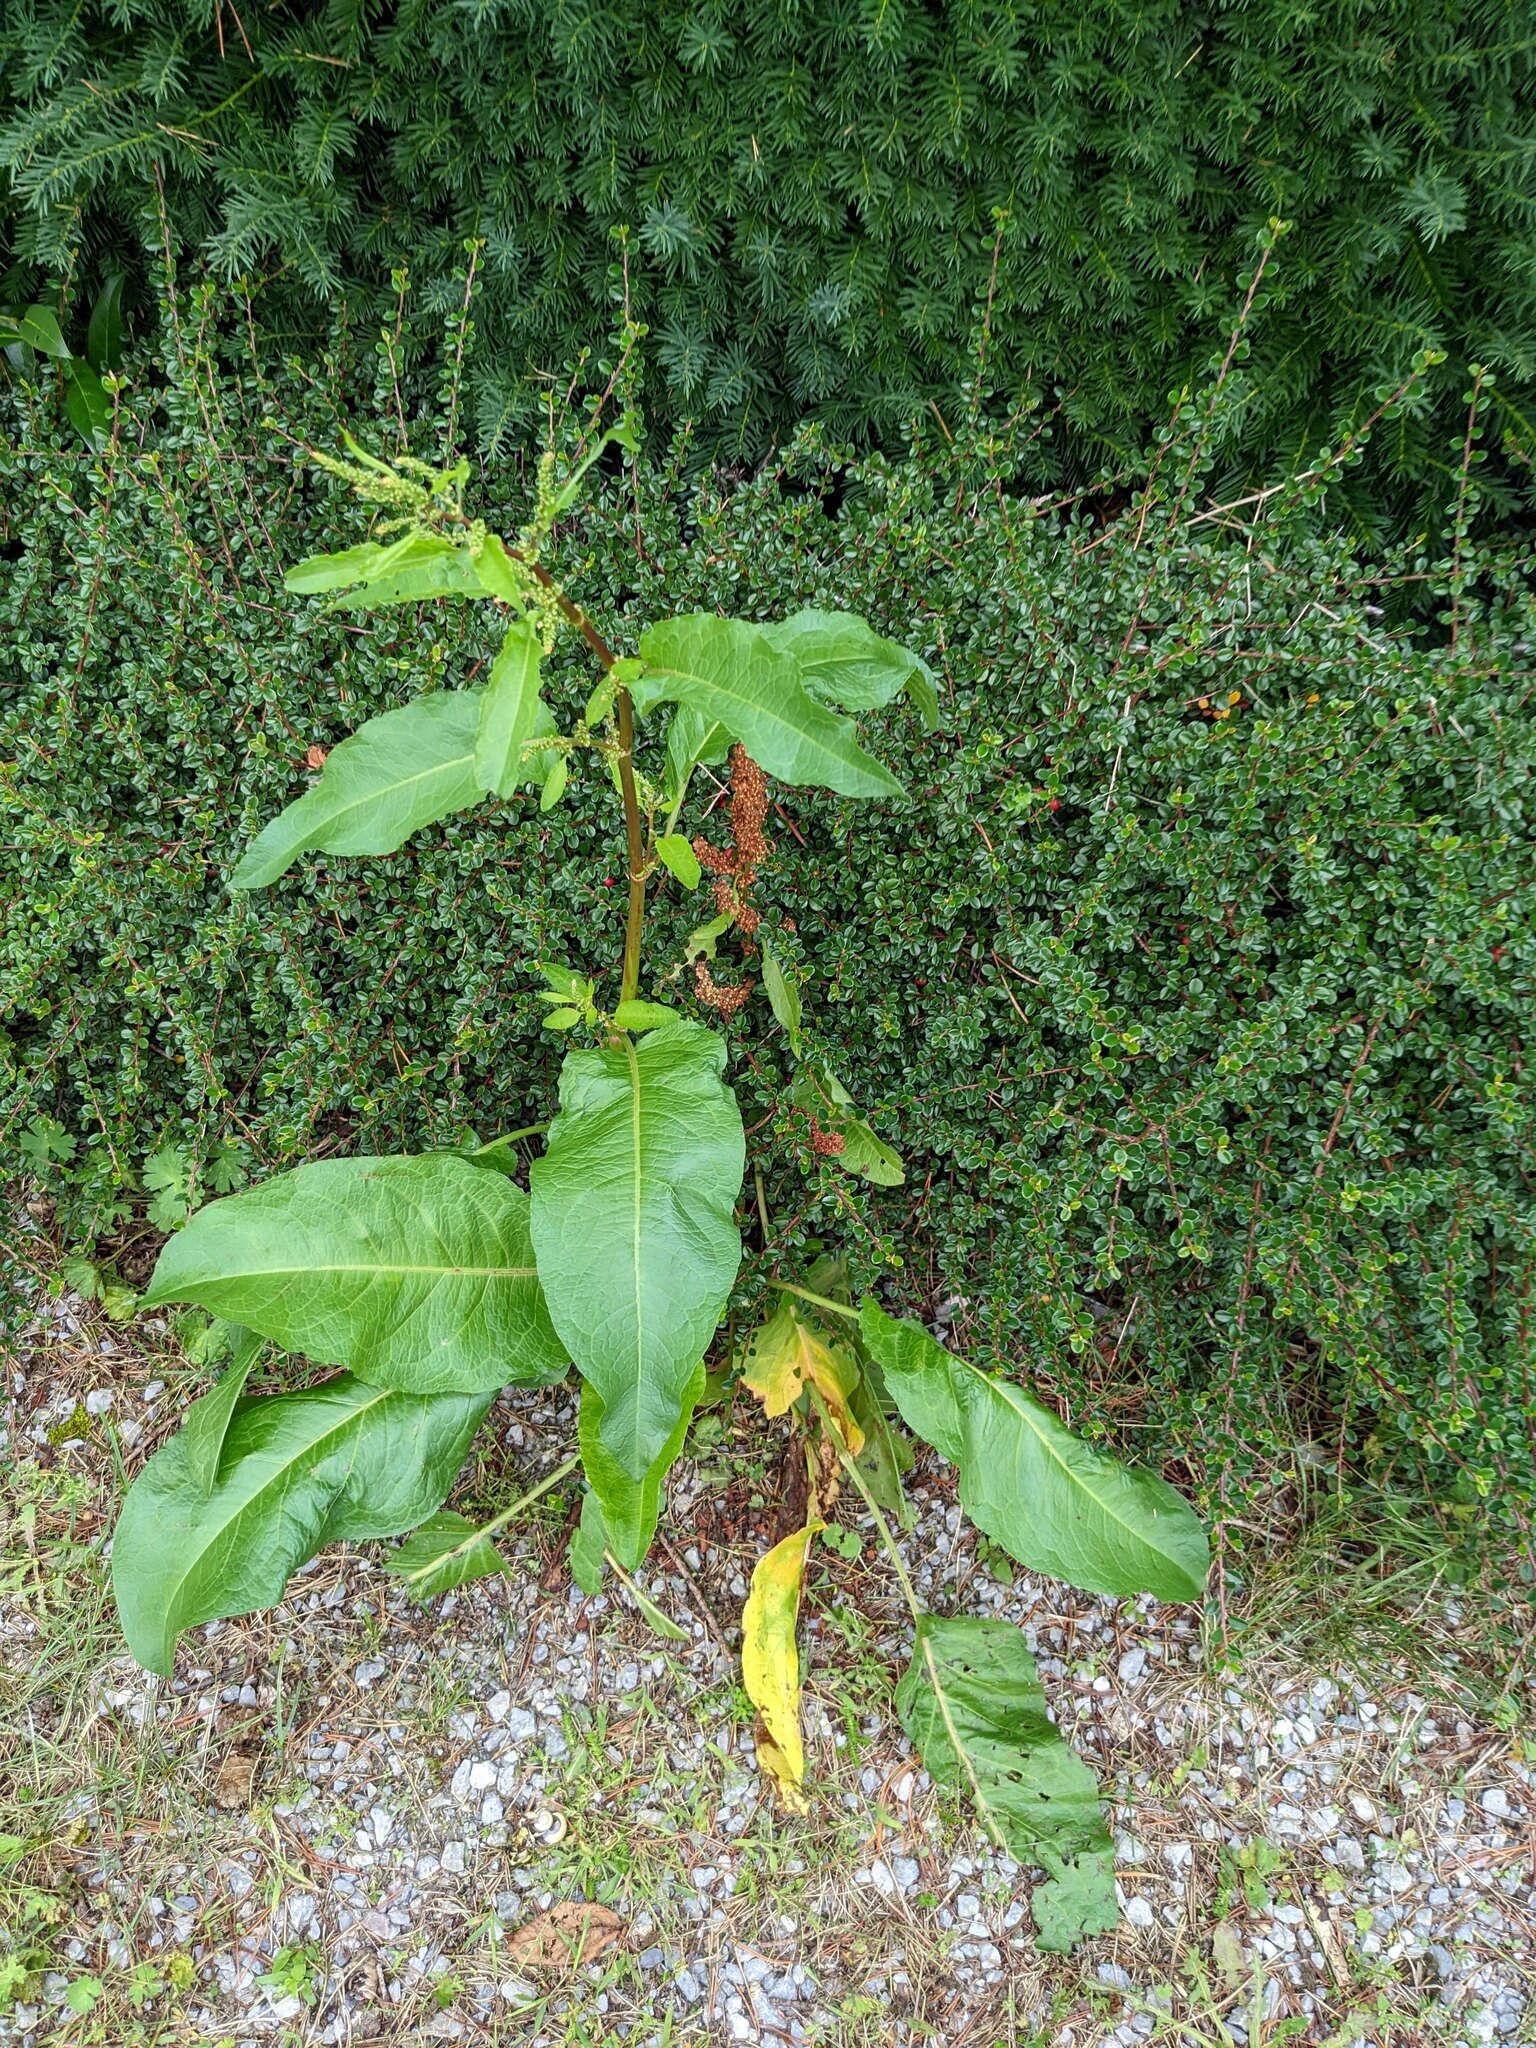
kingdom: Plantae
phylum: Tracheophyta
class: Magnoliopsida
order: Caryophyllales
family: Polygonaceae
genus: Rumex
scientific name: Rumex obtusifolius
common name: Bitter dock
